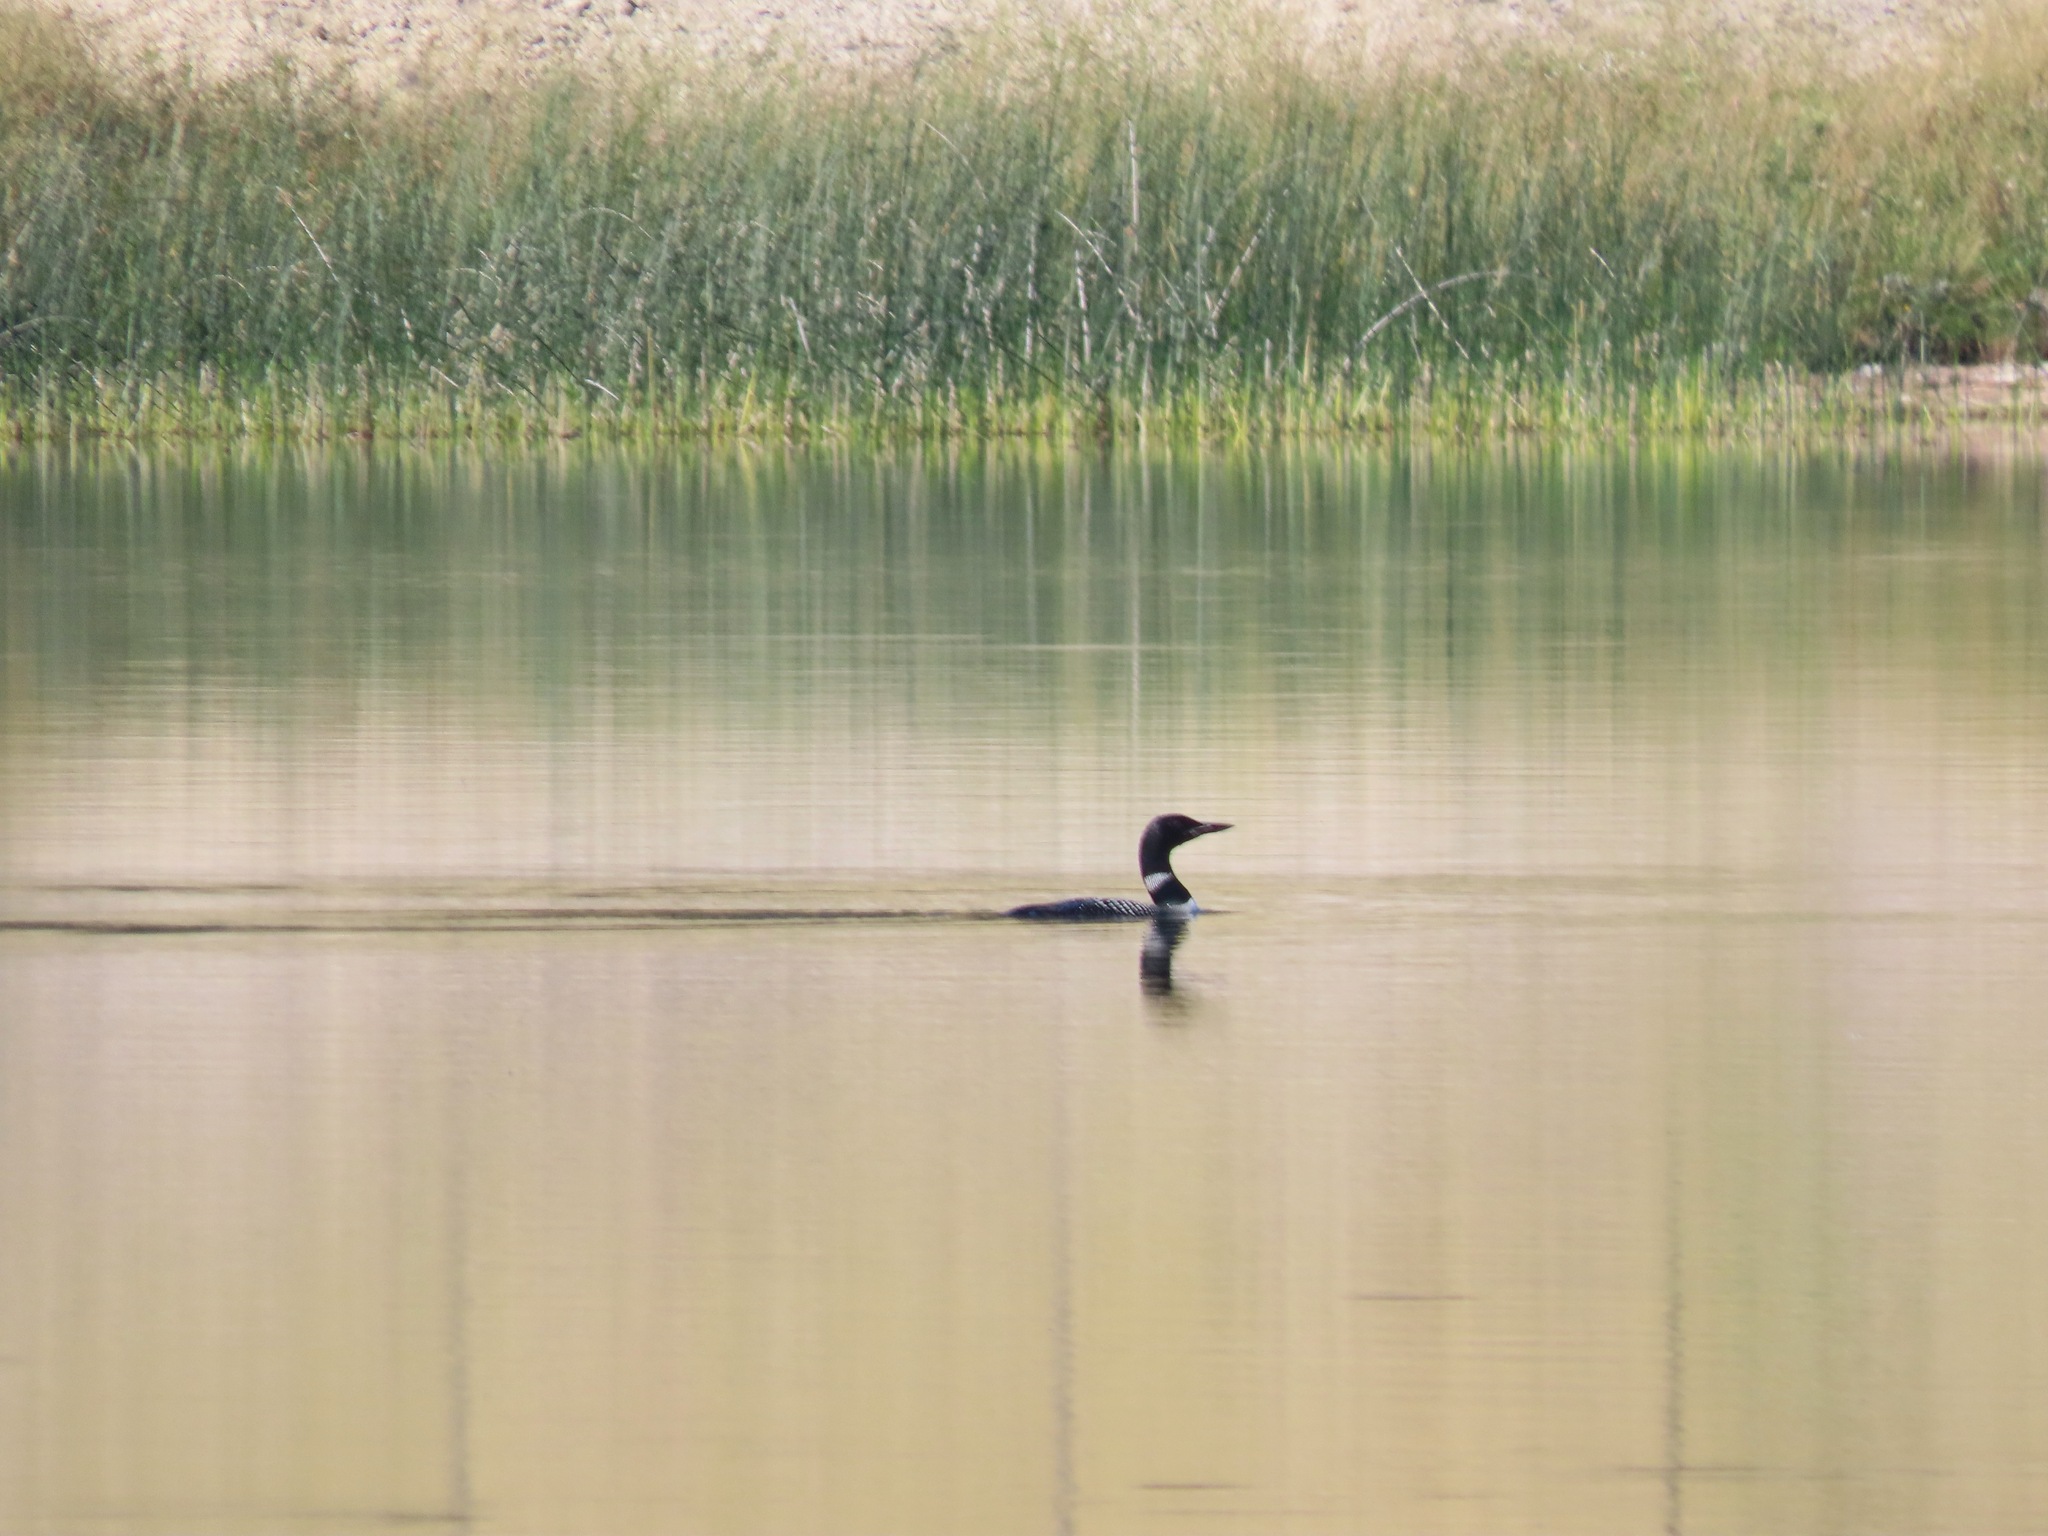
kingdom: Animalia
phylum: Chordata
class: Aves
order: Gaviiformes
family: Gaviidae
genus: Gavia
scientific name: Gavia immer
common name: Common loon
